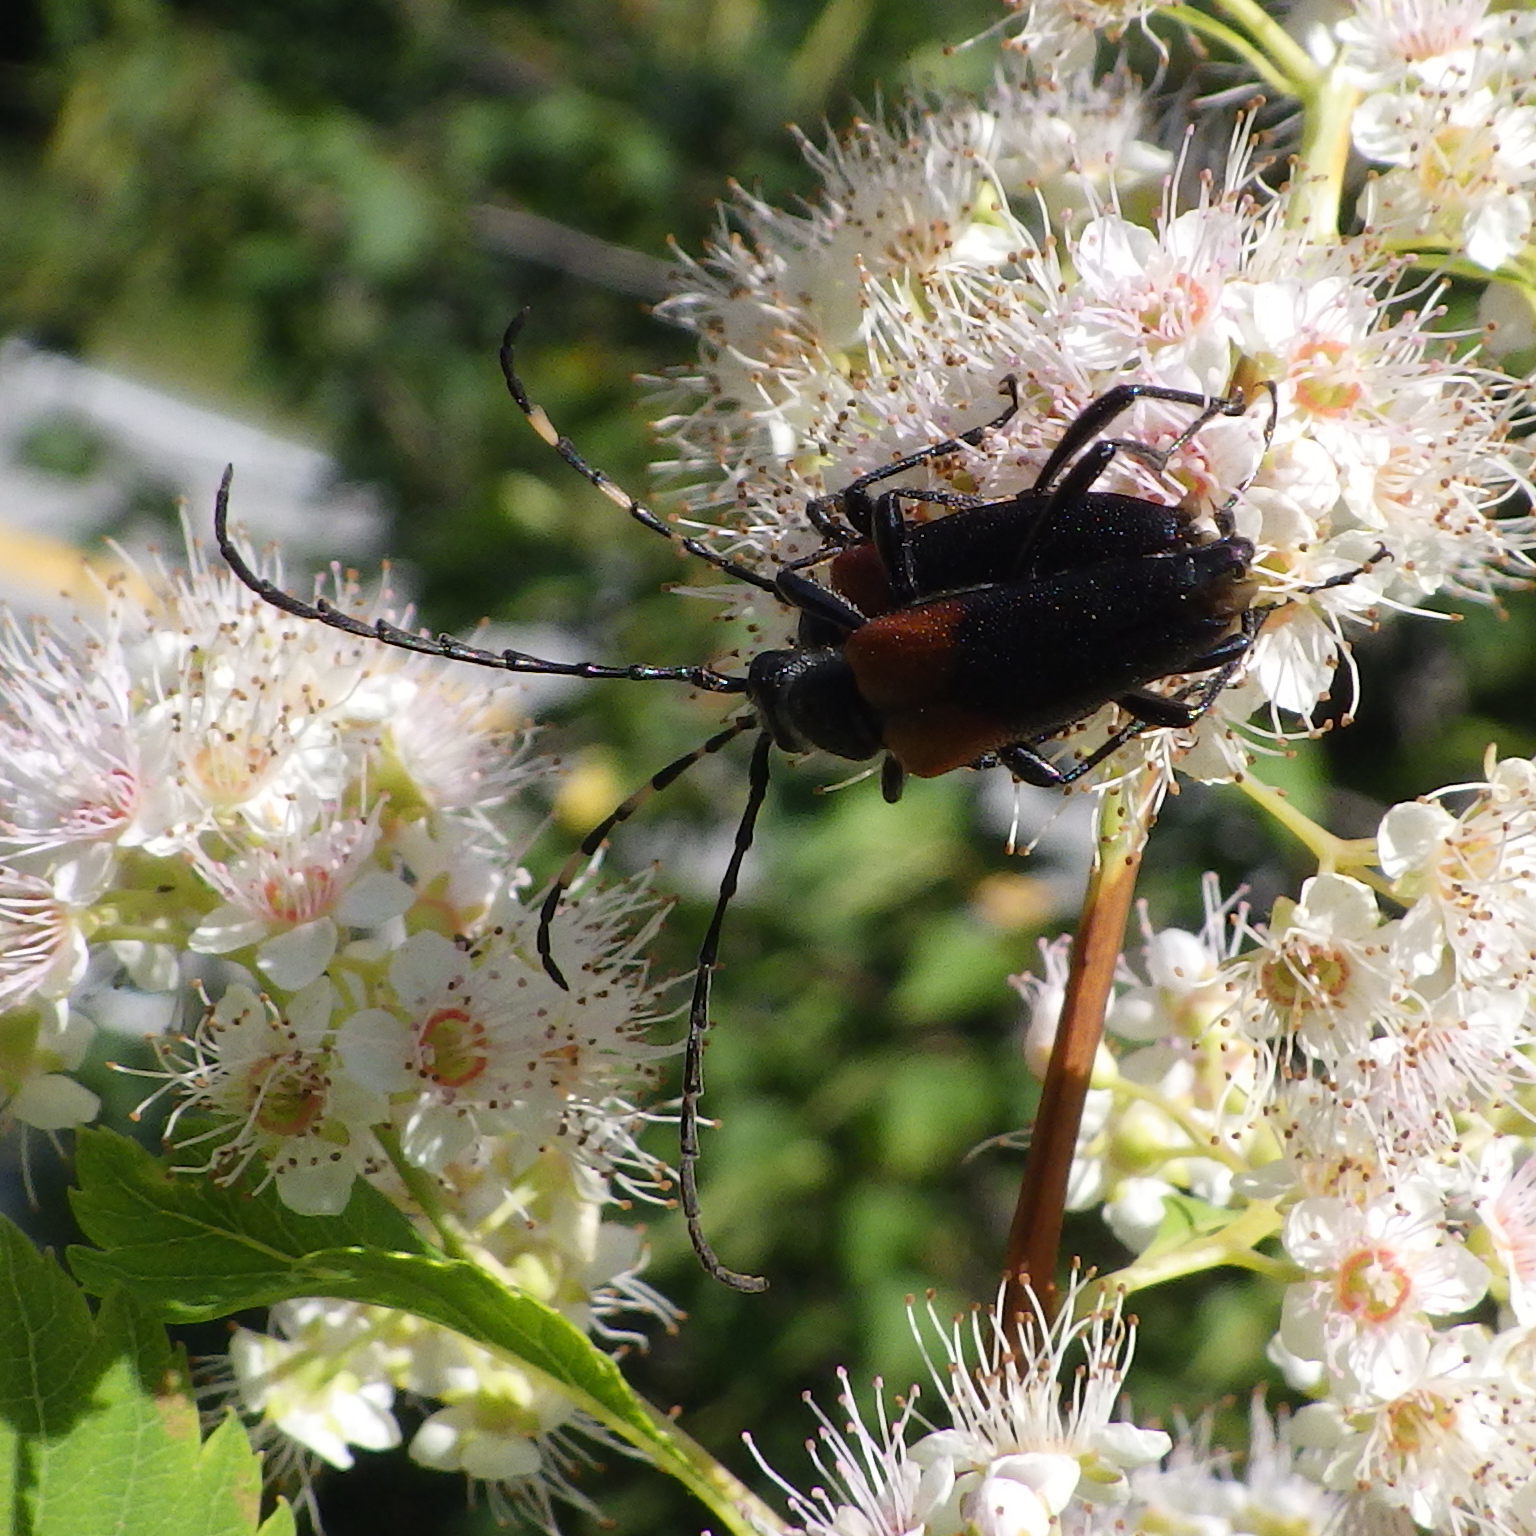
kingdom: Animalia
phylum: Arthropoda
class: Insecta
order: Coleoptera
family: Cerambycidae
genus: Stictoleptura
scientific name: Stictoleptura canadensis
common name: Red-shouldered pine borer
